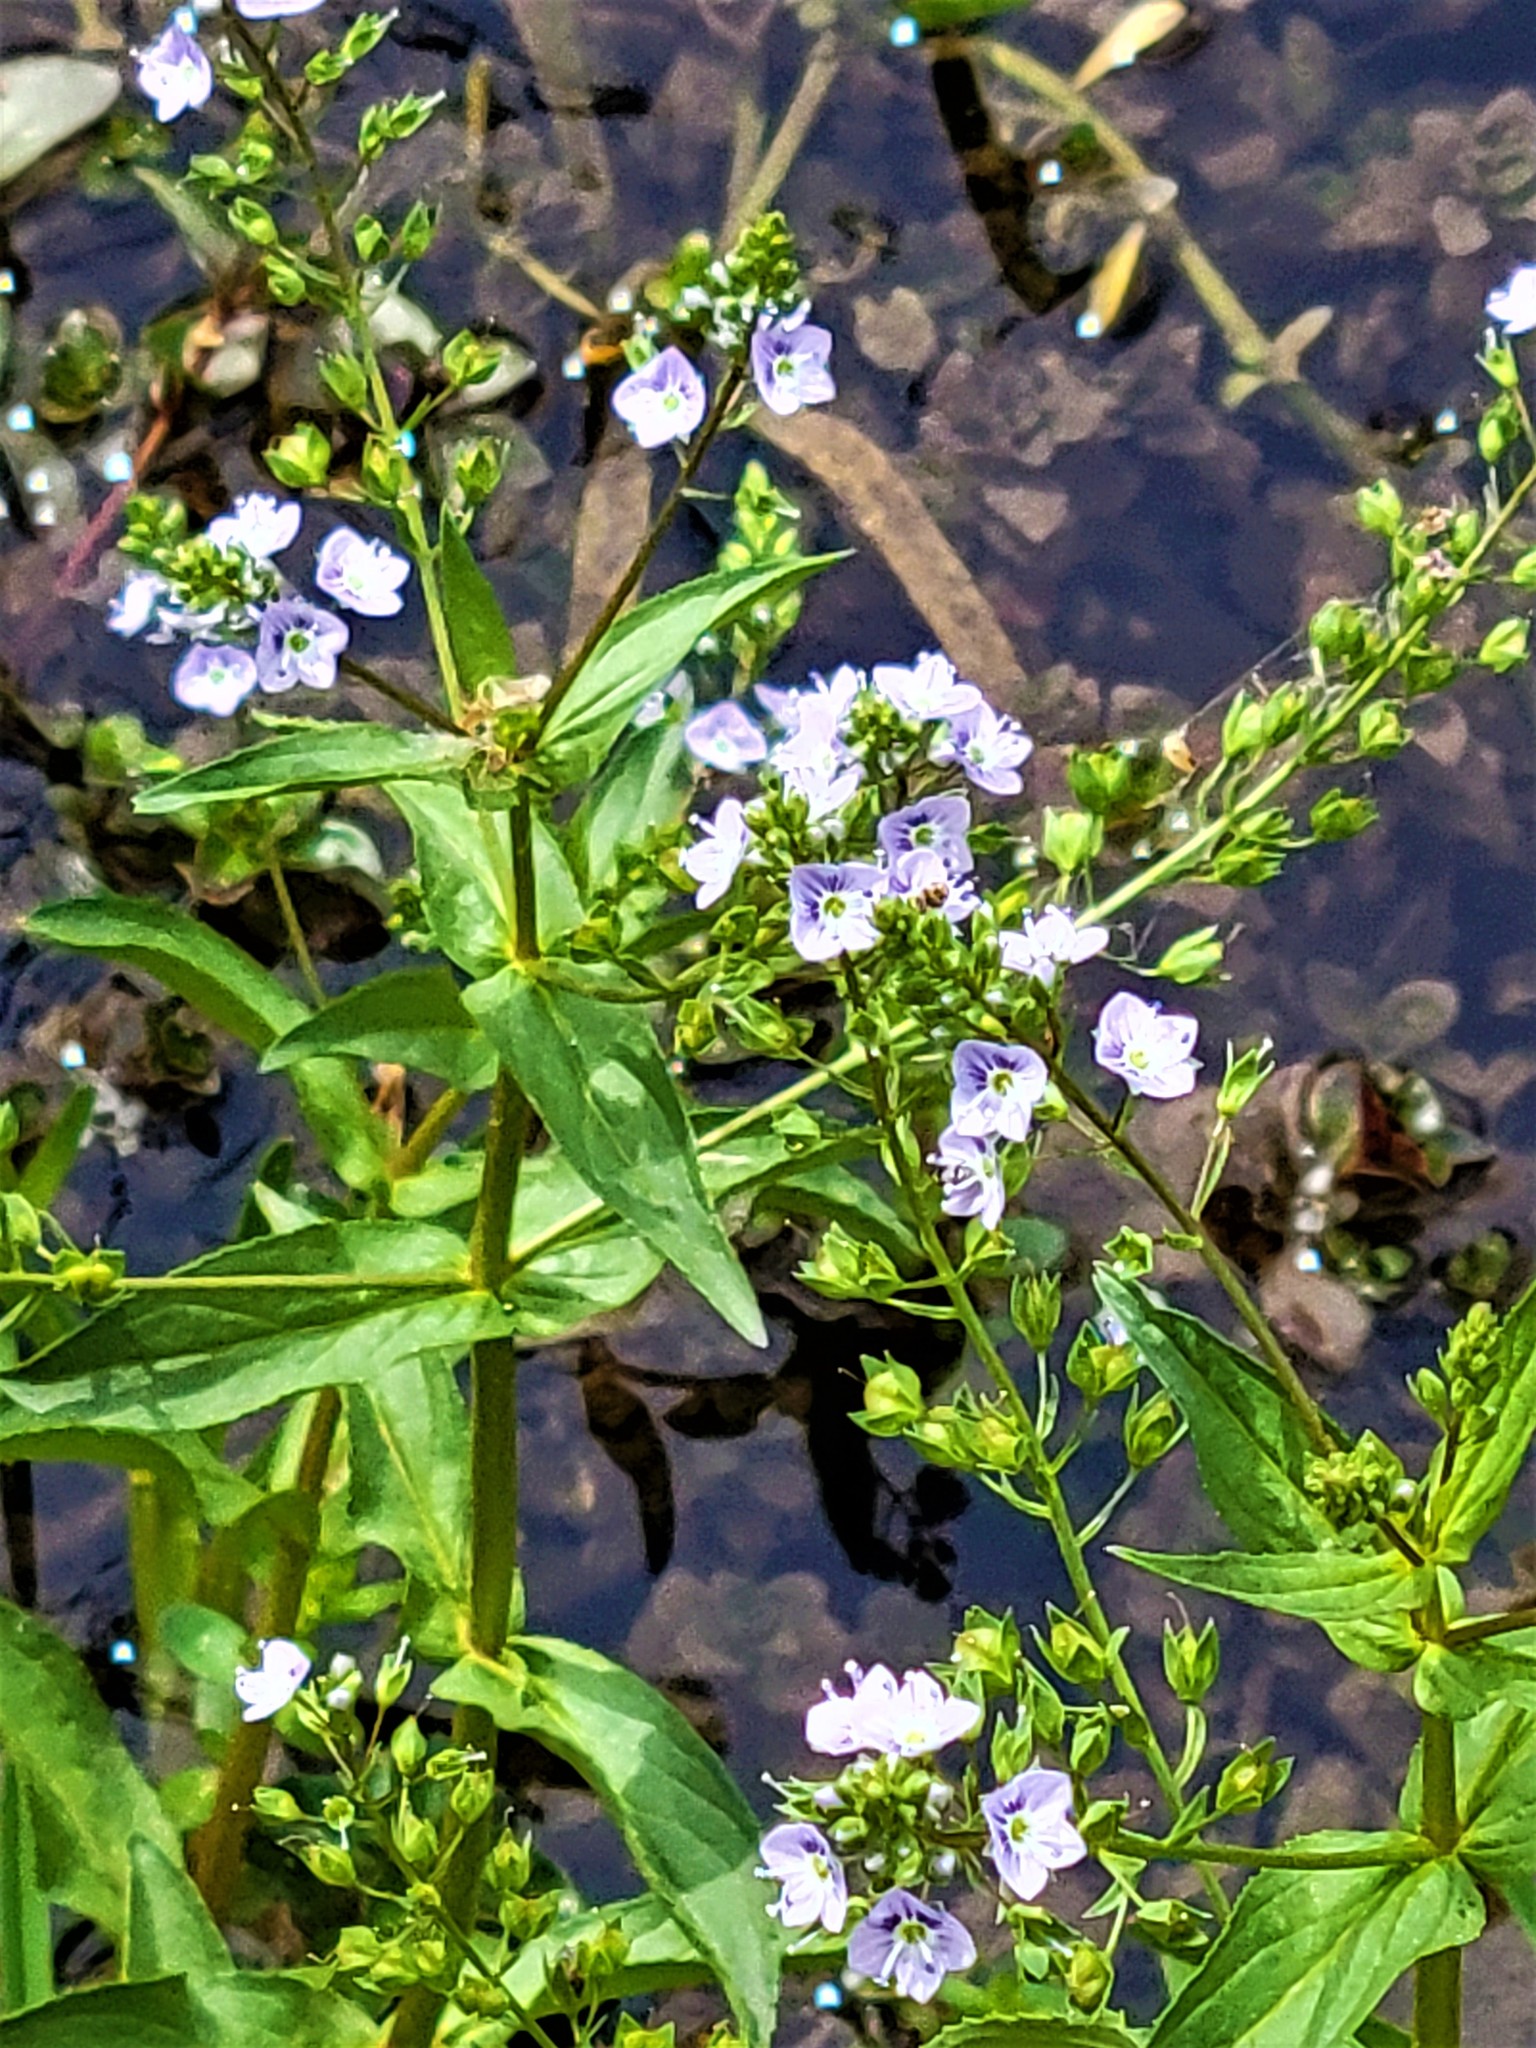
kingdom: Plantae
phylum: Tracheophyta
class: Magnoliopsida
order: Lamiales
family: Plantaginaceae
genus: Veronica
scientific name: Veronica anagallis-aquatica
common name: Water speedwell
